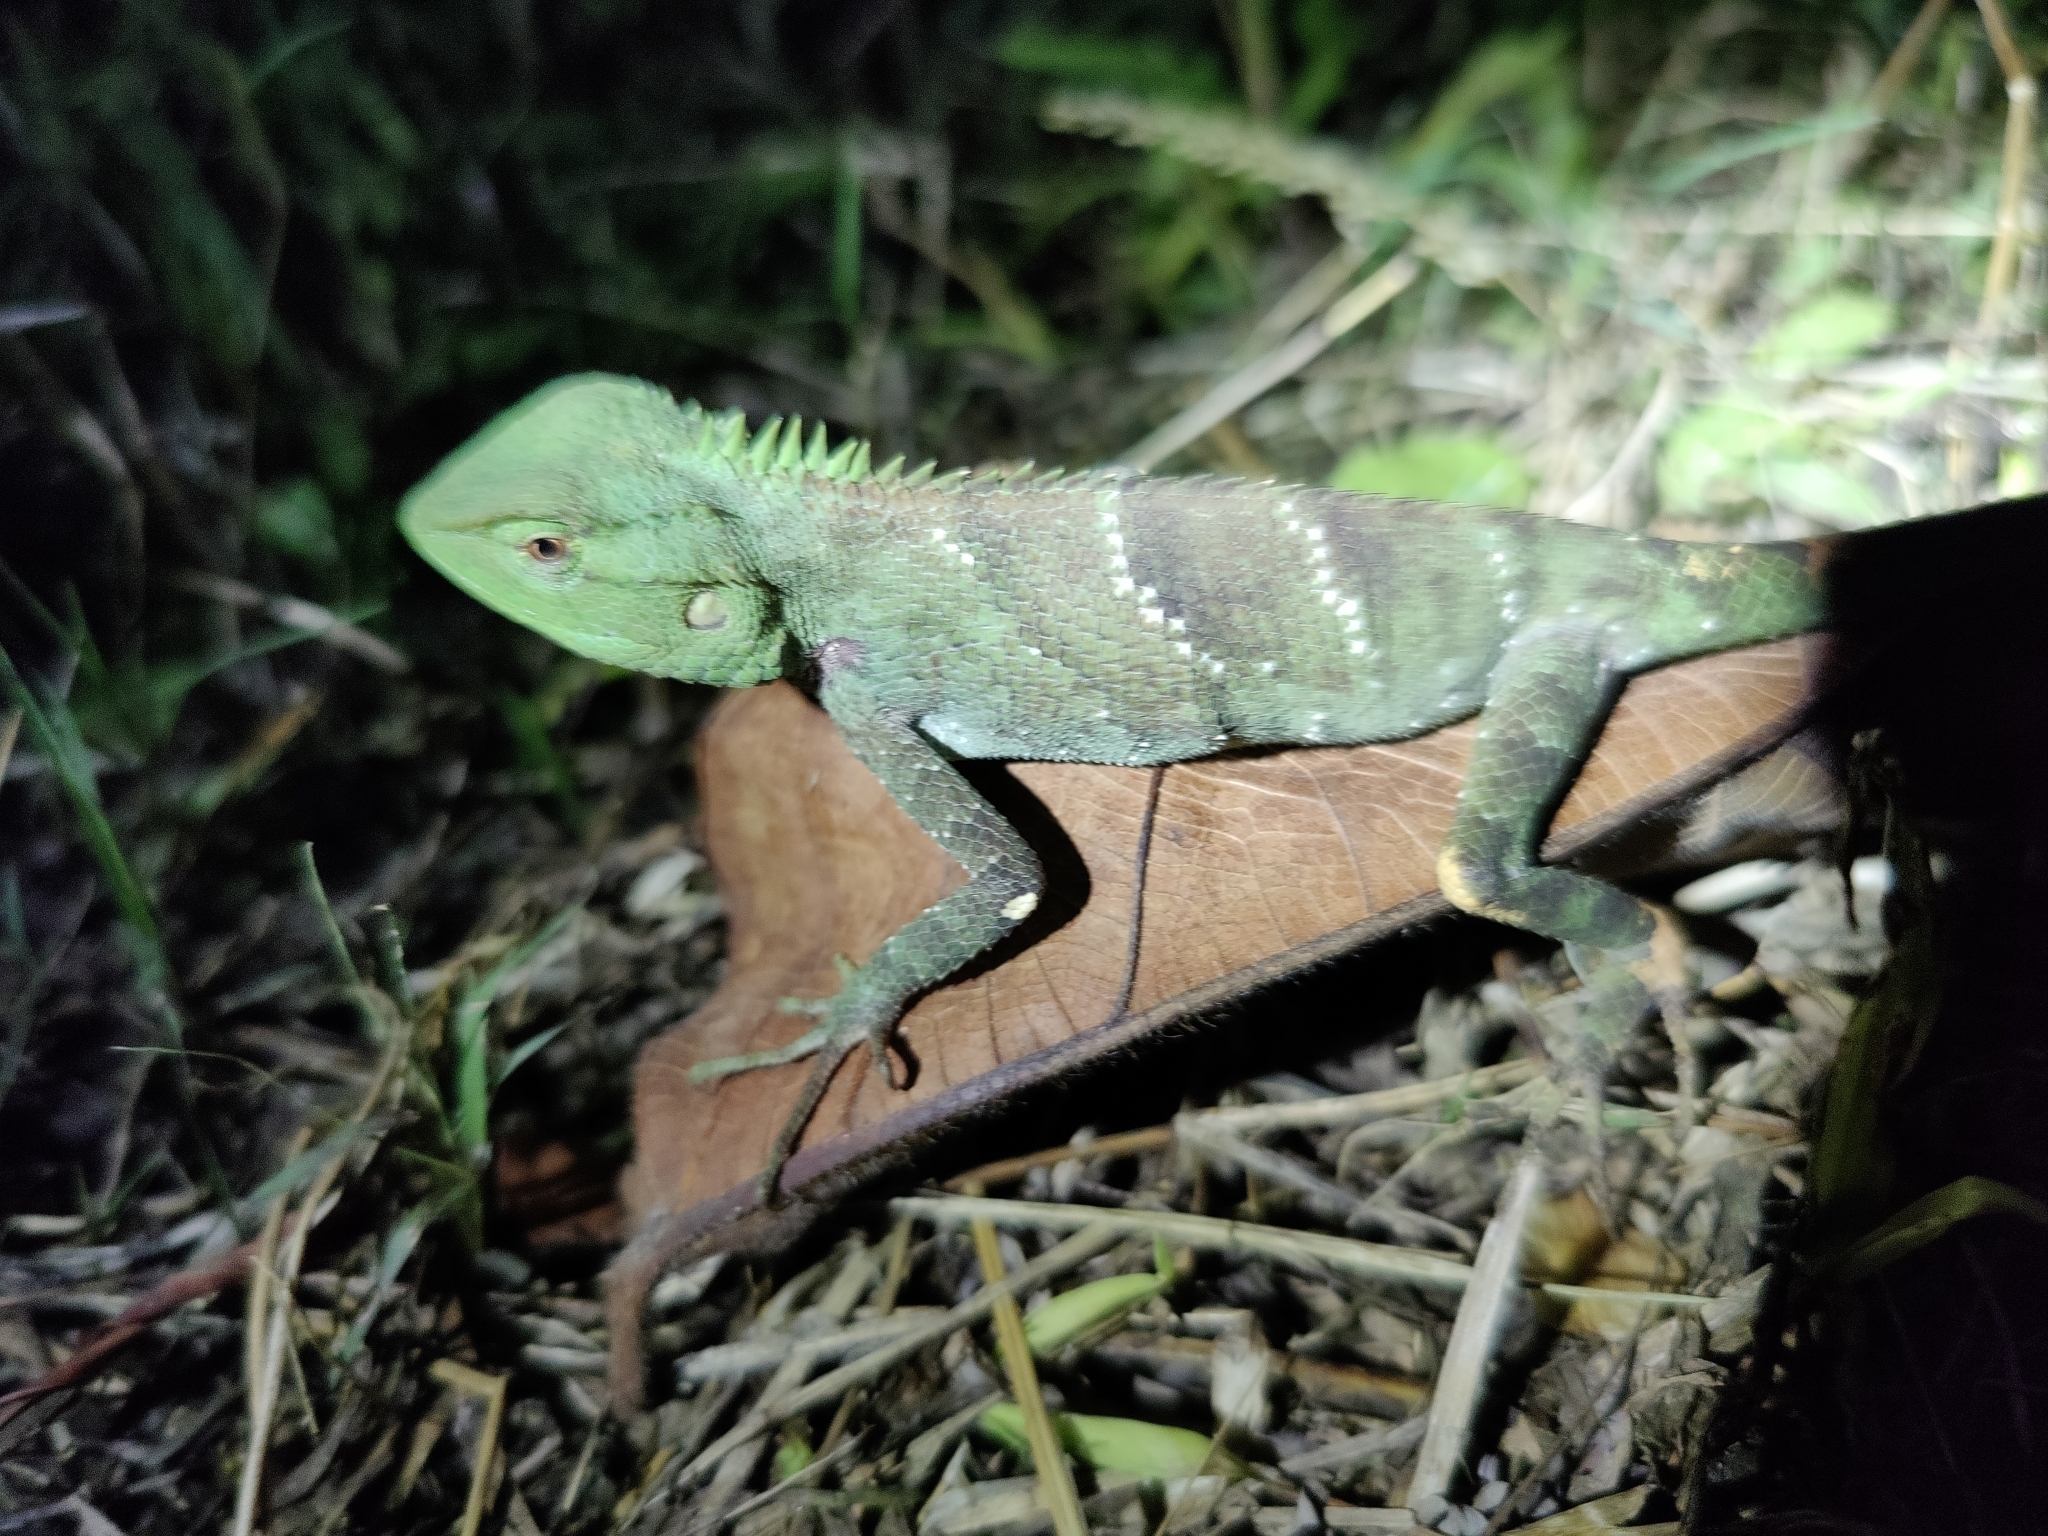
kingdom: Animalia
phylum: Chordata
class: Squamata
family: Agamidae
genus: Calotes
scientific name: Calotes medogensis
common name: Medog bloodsucker
